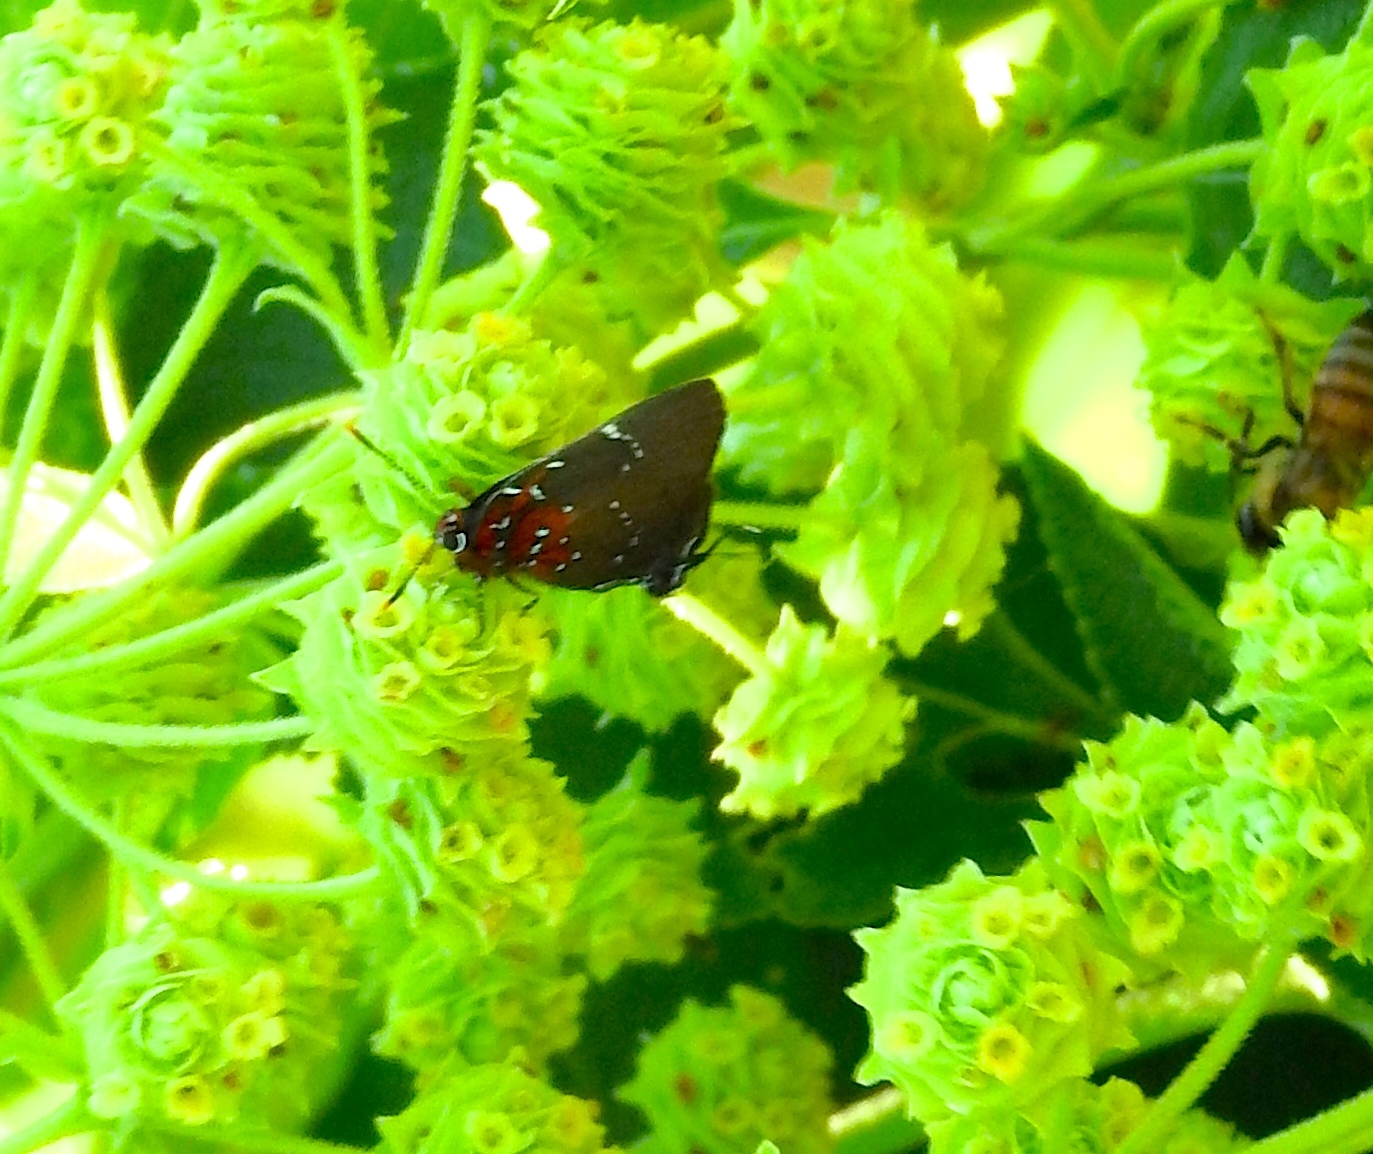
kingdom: Animalia
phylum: Arthropoda
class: Insecta
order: Lepidoptera
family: Lycaenidae
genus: Atlides
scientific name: Atlides Brangas neora
